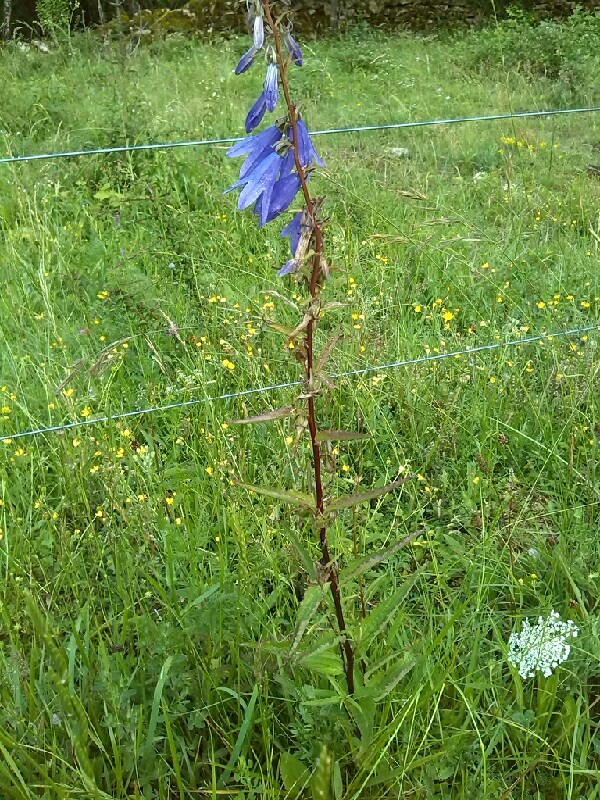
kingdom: Plantae
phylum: Tracheophyta
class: Magnoliopsida
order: Asterales
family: Campanulaceae
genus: Campanula
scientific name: Campanula rapunculoides
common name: Creeping bellflower
